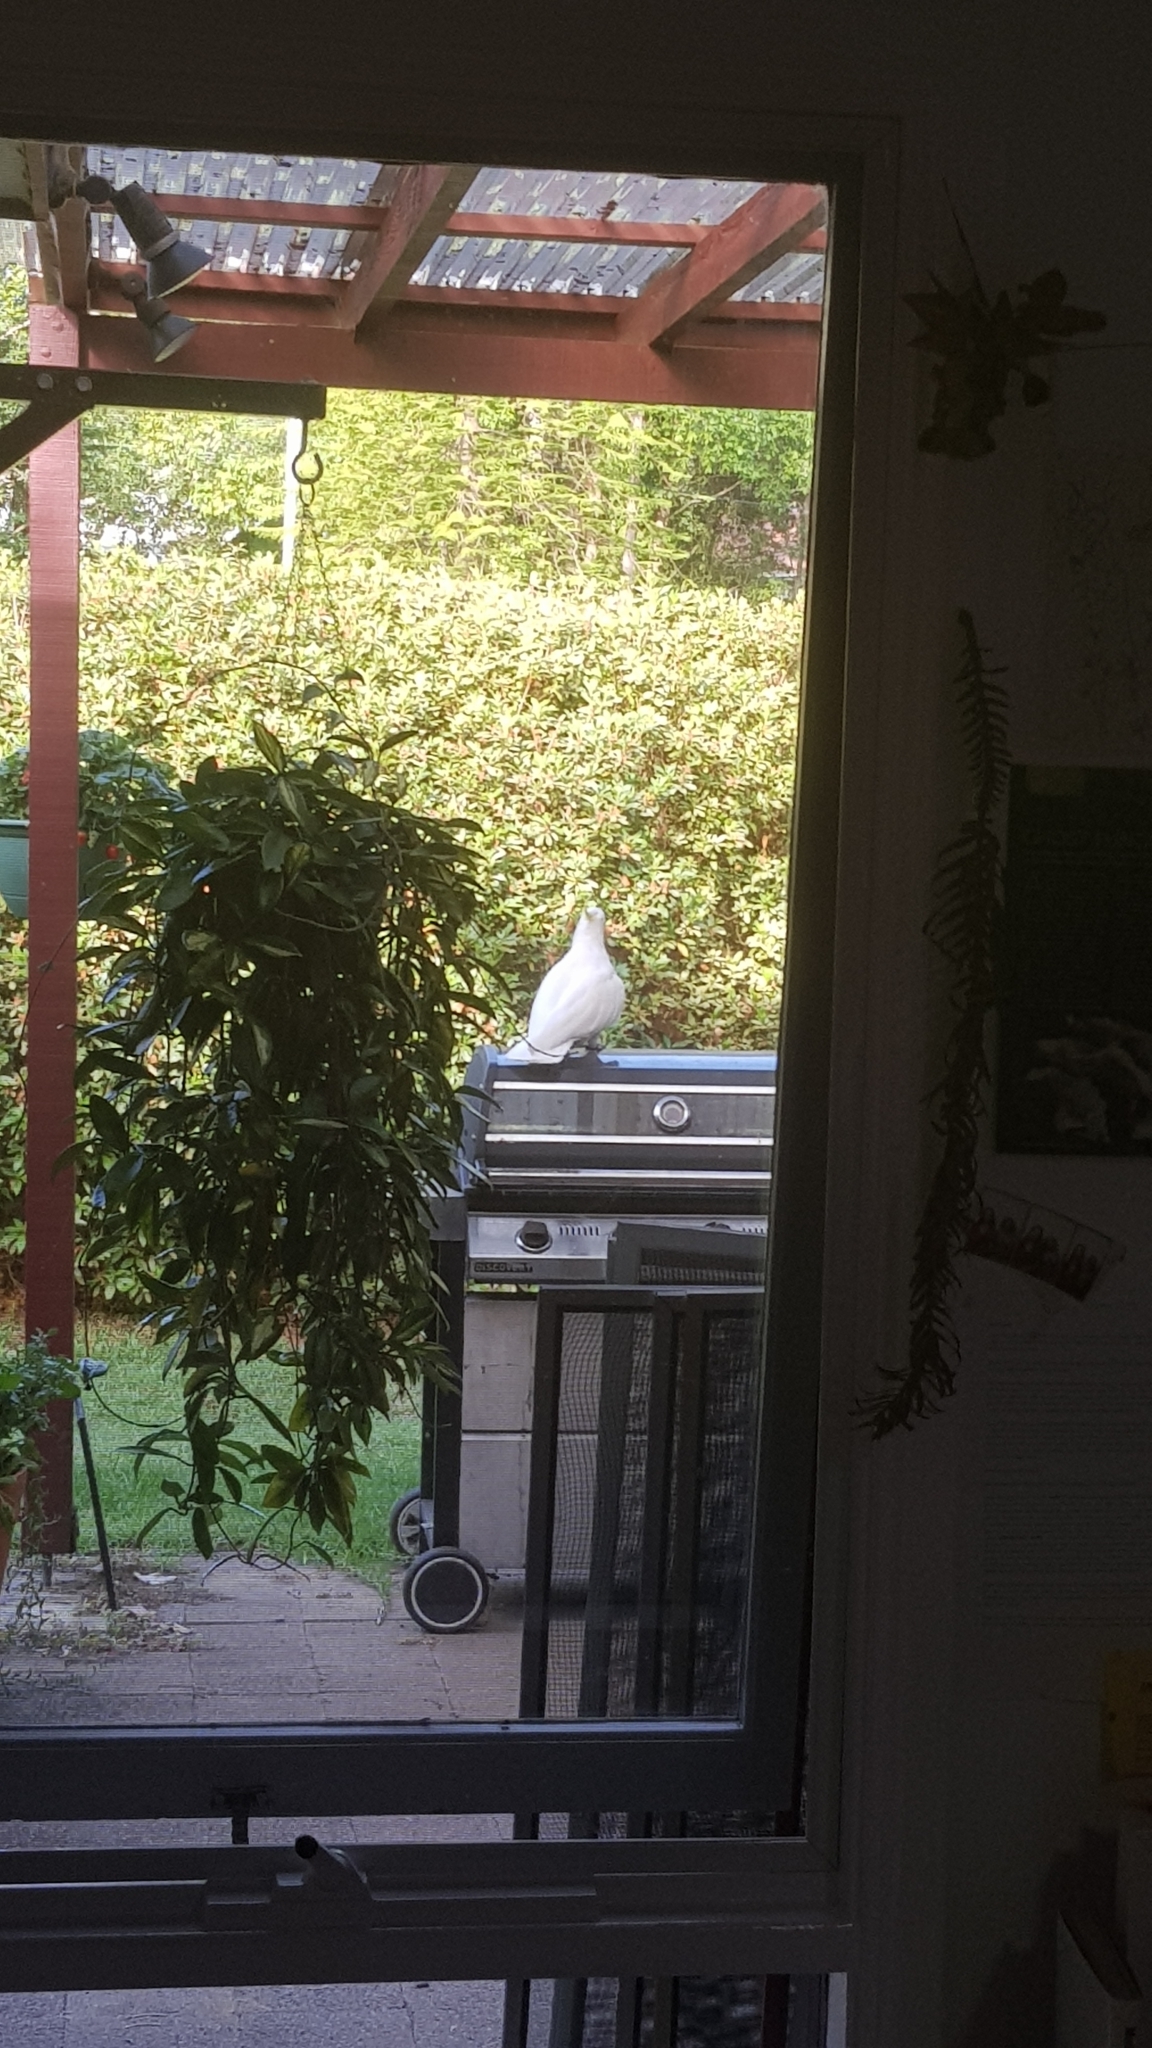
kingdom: Animalia
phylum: Chordata
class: Aves
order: Psittaciformes
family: Psittacidae
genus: Cacatua
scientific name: Cacatua galerita
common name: Sulphur-crested cockatoo
